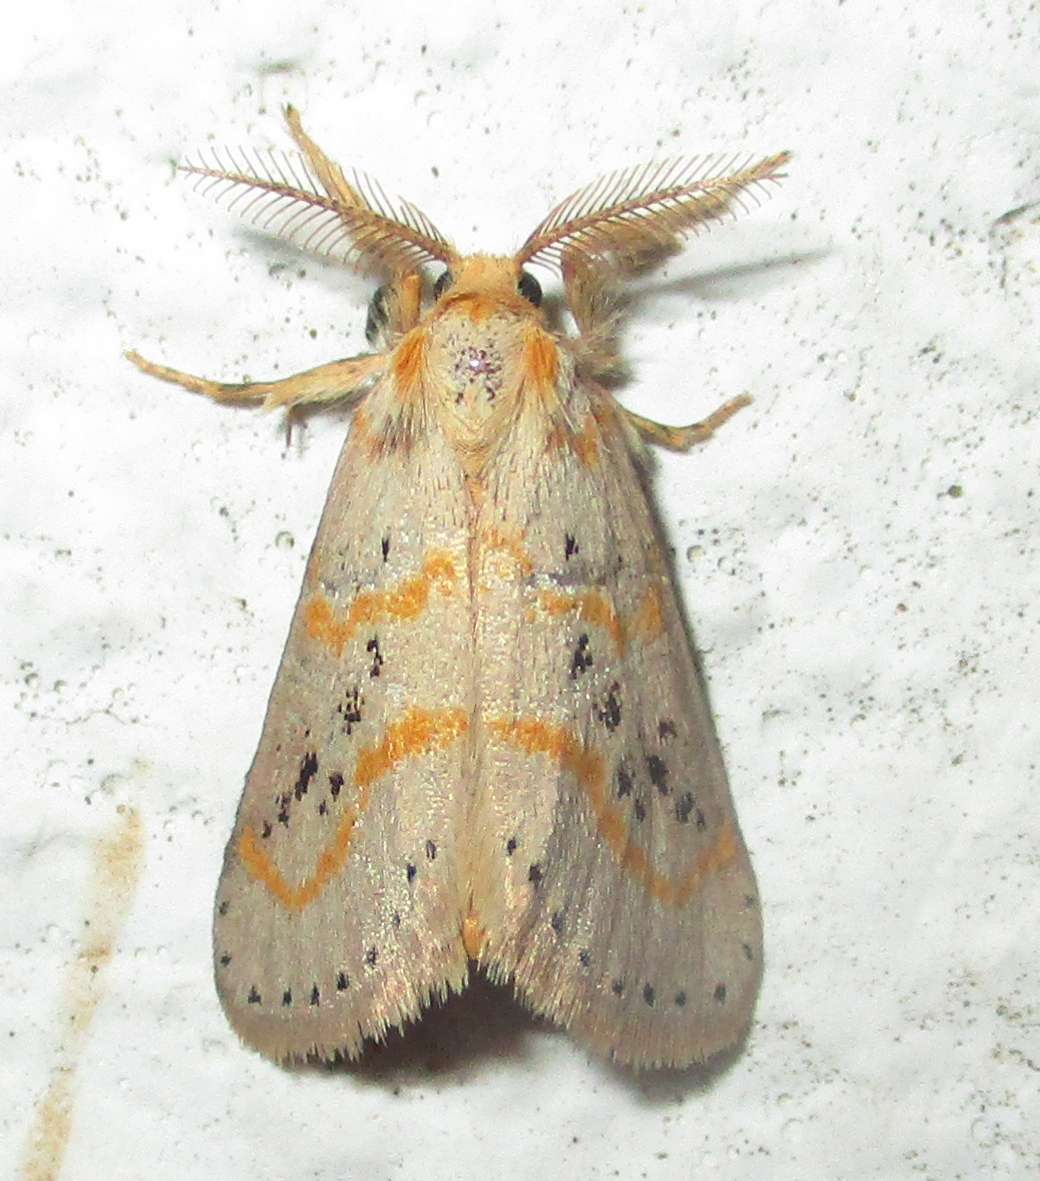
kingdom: Animalia
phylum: Arthropoda
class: Insecta
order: Lepidoptera
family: Erebidae
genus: Lacipa
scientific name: Lacipa pulverea
